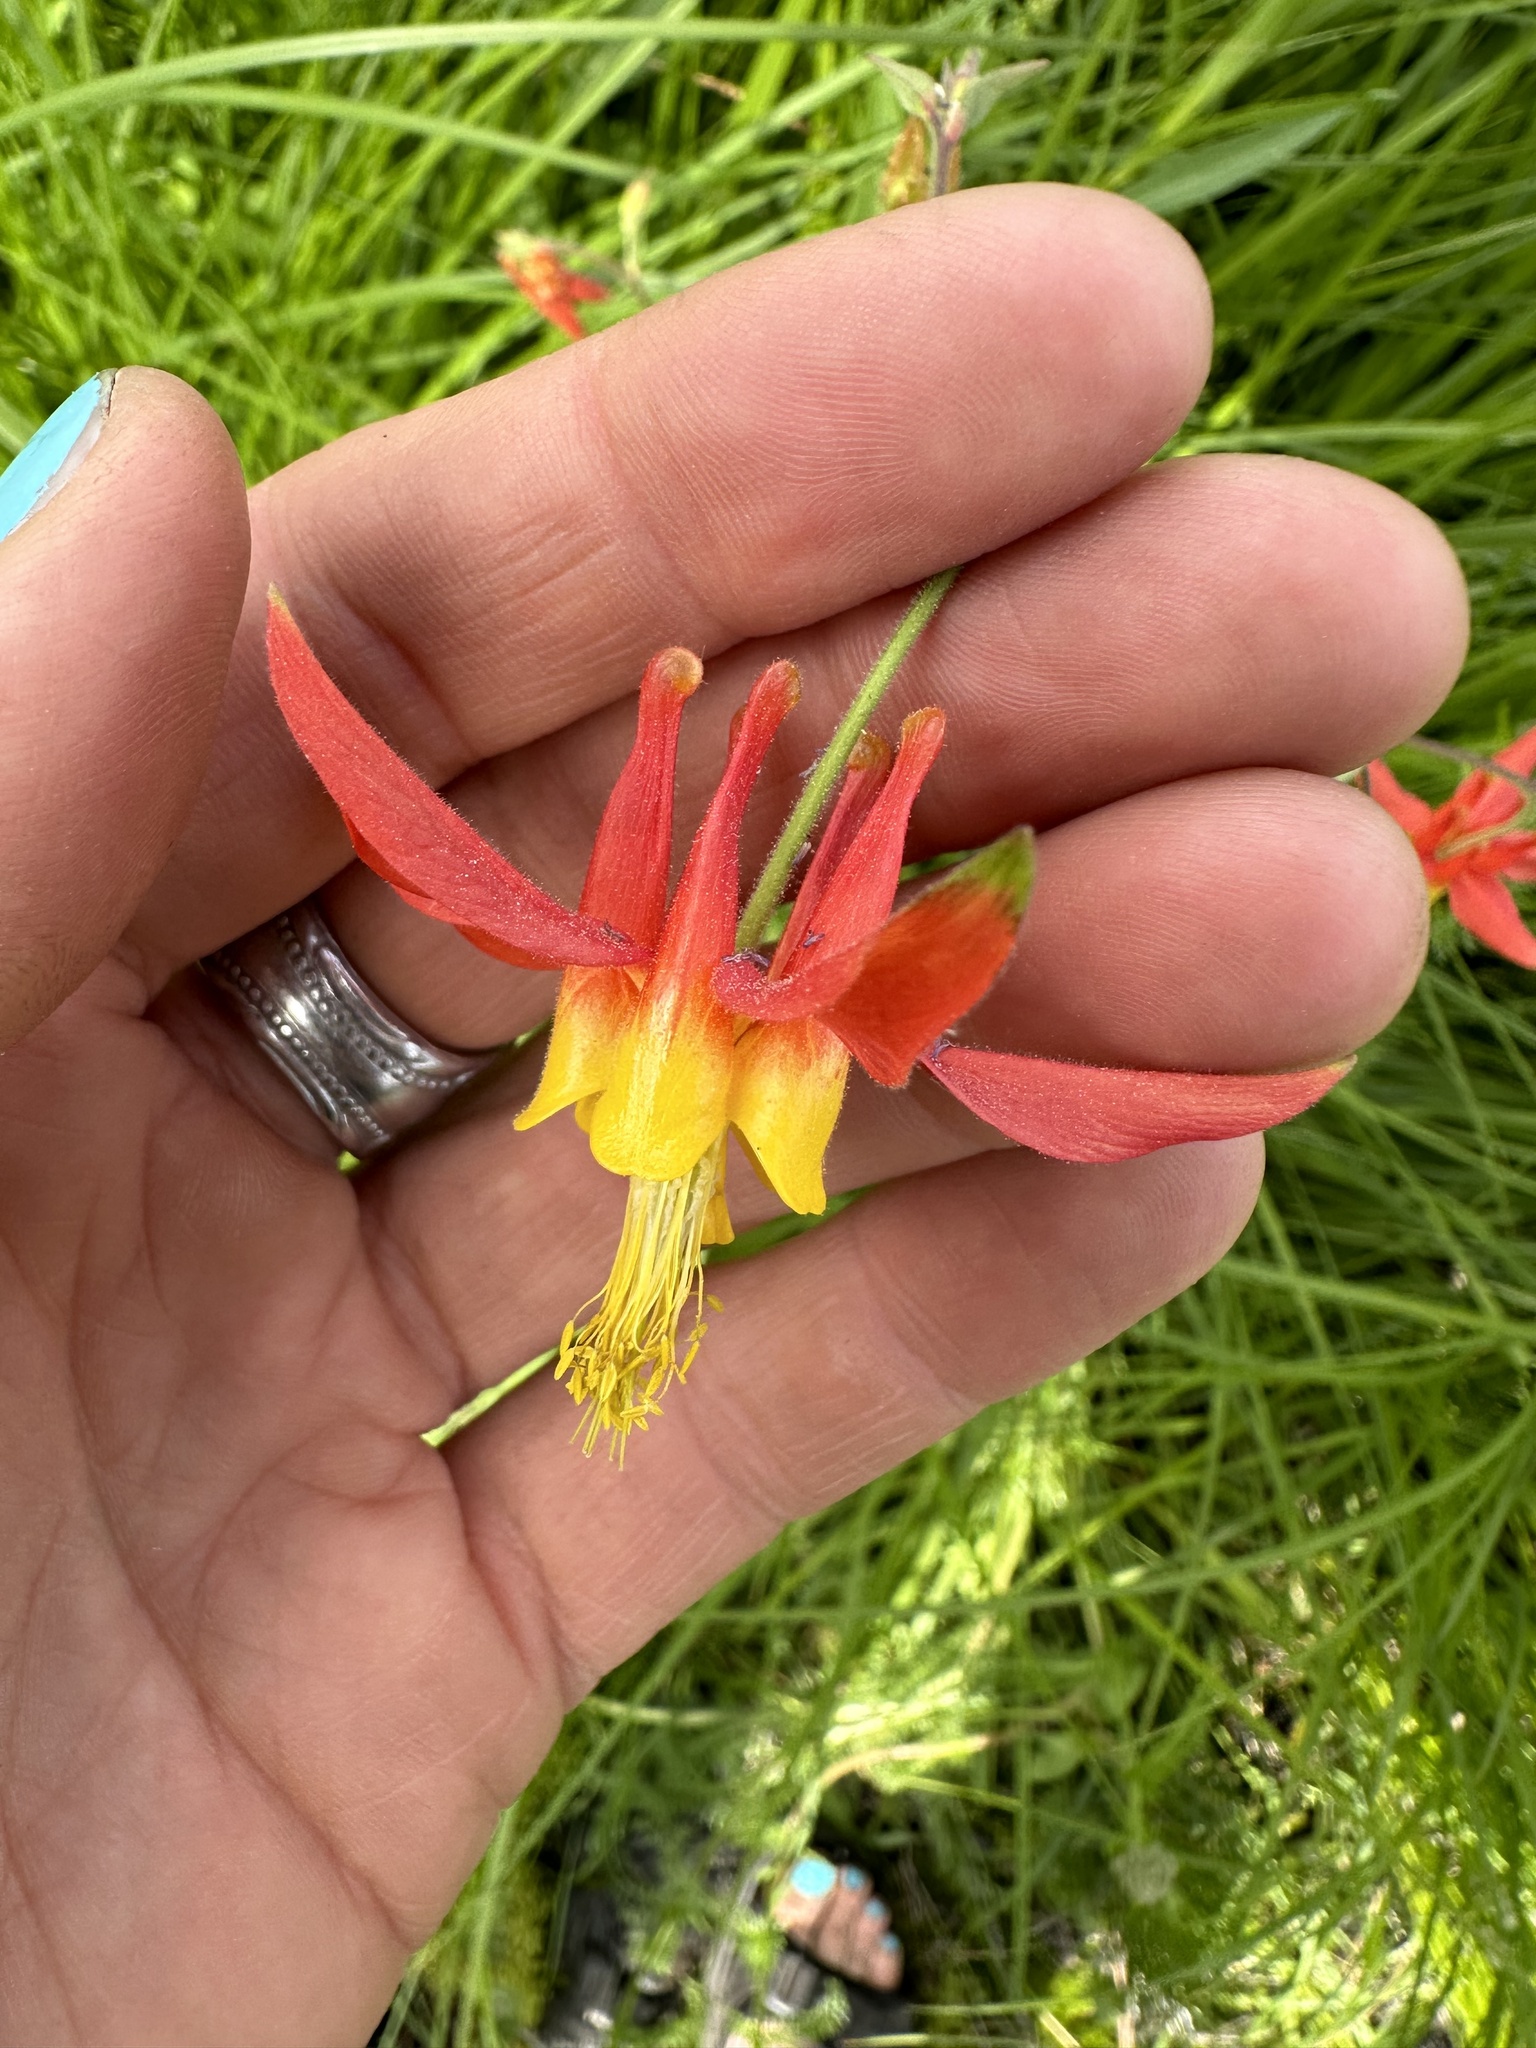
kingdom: Plantae
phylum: Tracheophyta
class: Magnoliopsida
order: Ranunculales
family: Ranunculaceae
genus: Aquilegia
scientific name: Aquilegia formosa
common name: Sitka columbine
